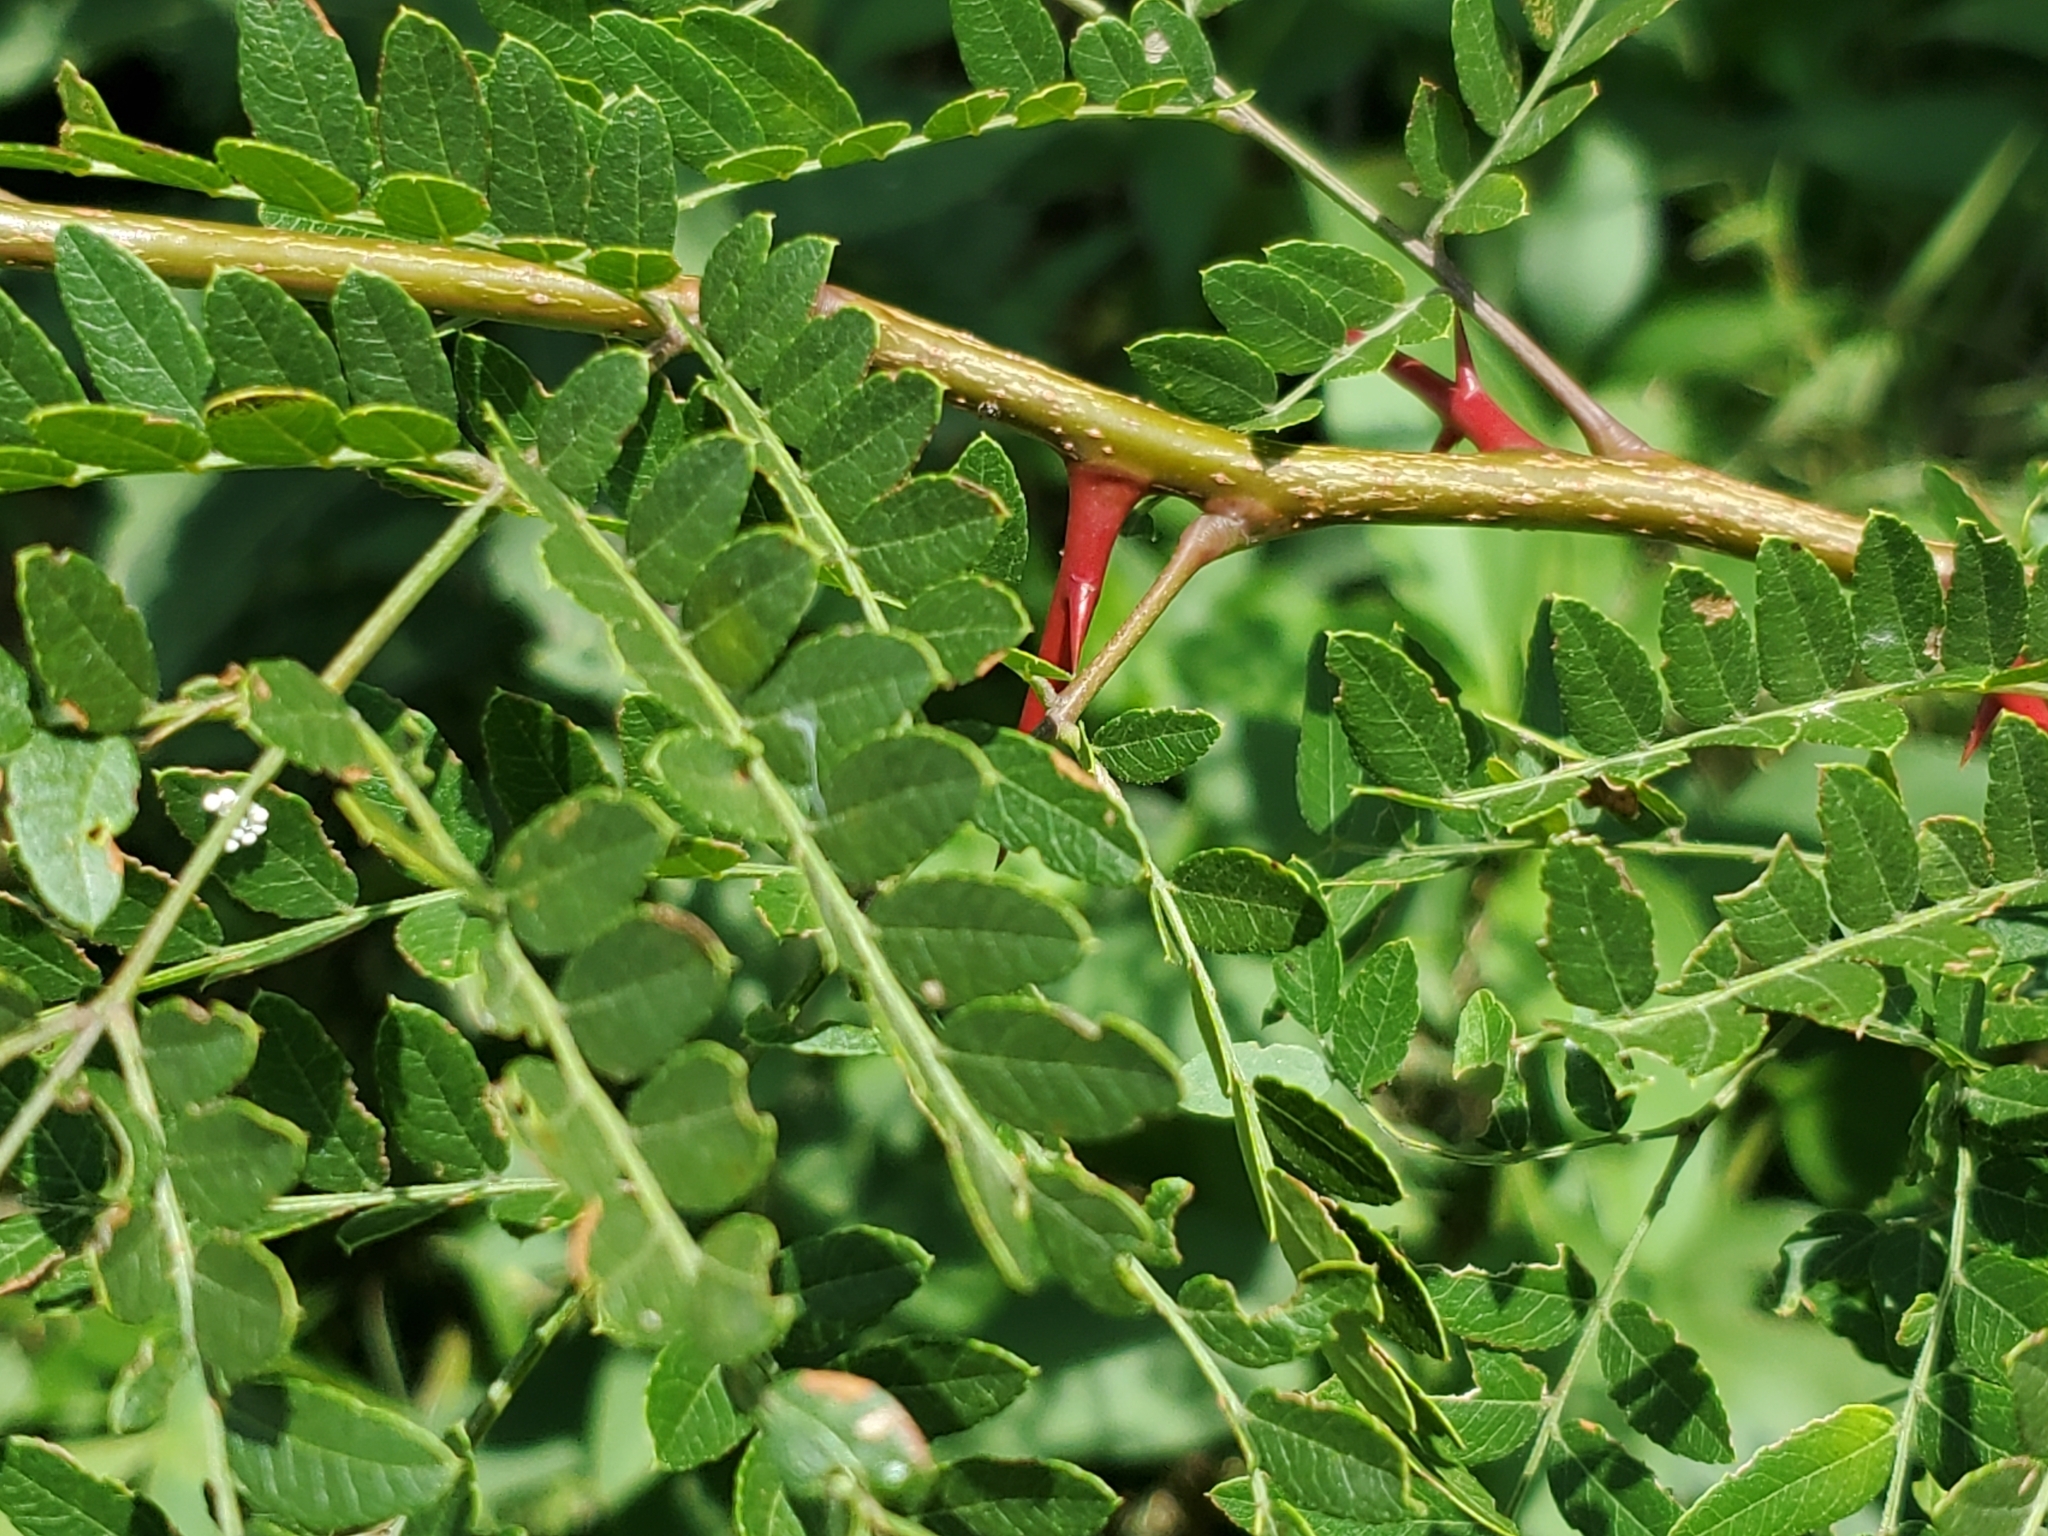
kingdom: Plantae
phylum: Tracheophyta
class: Magnoliopsida
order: Fabales
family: Fabaceae
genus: Gleditsia
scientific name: Gleditsia triacanthos
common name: Common honeylocust
